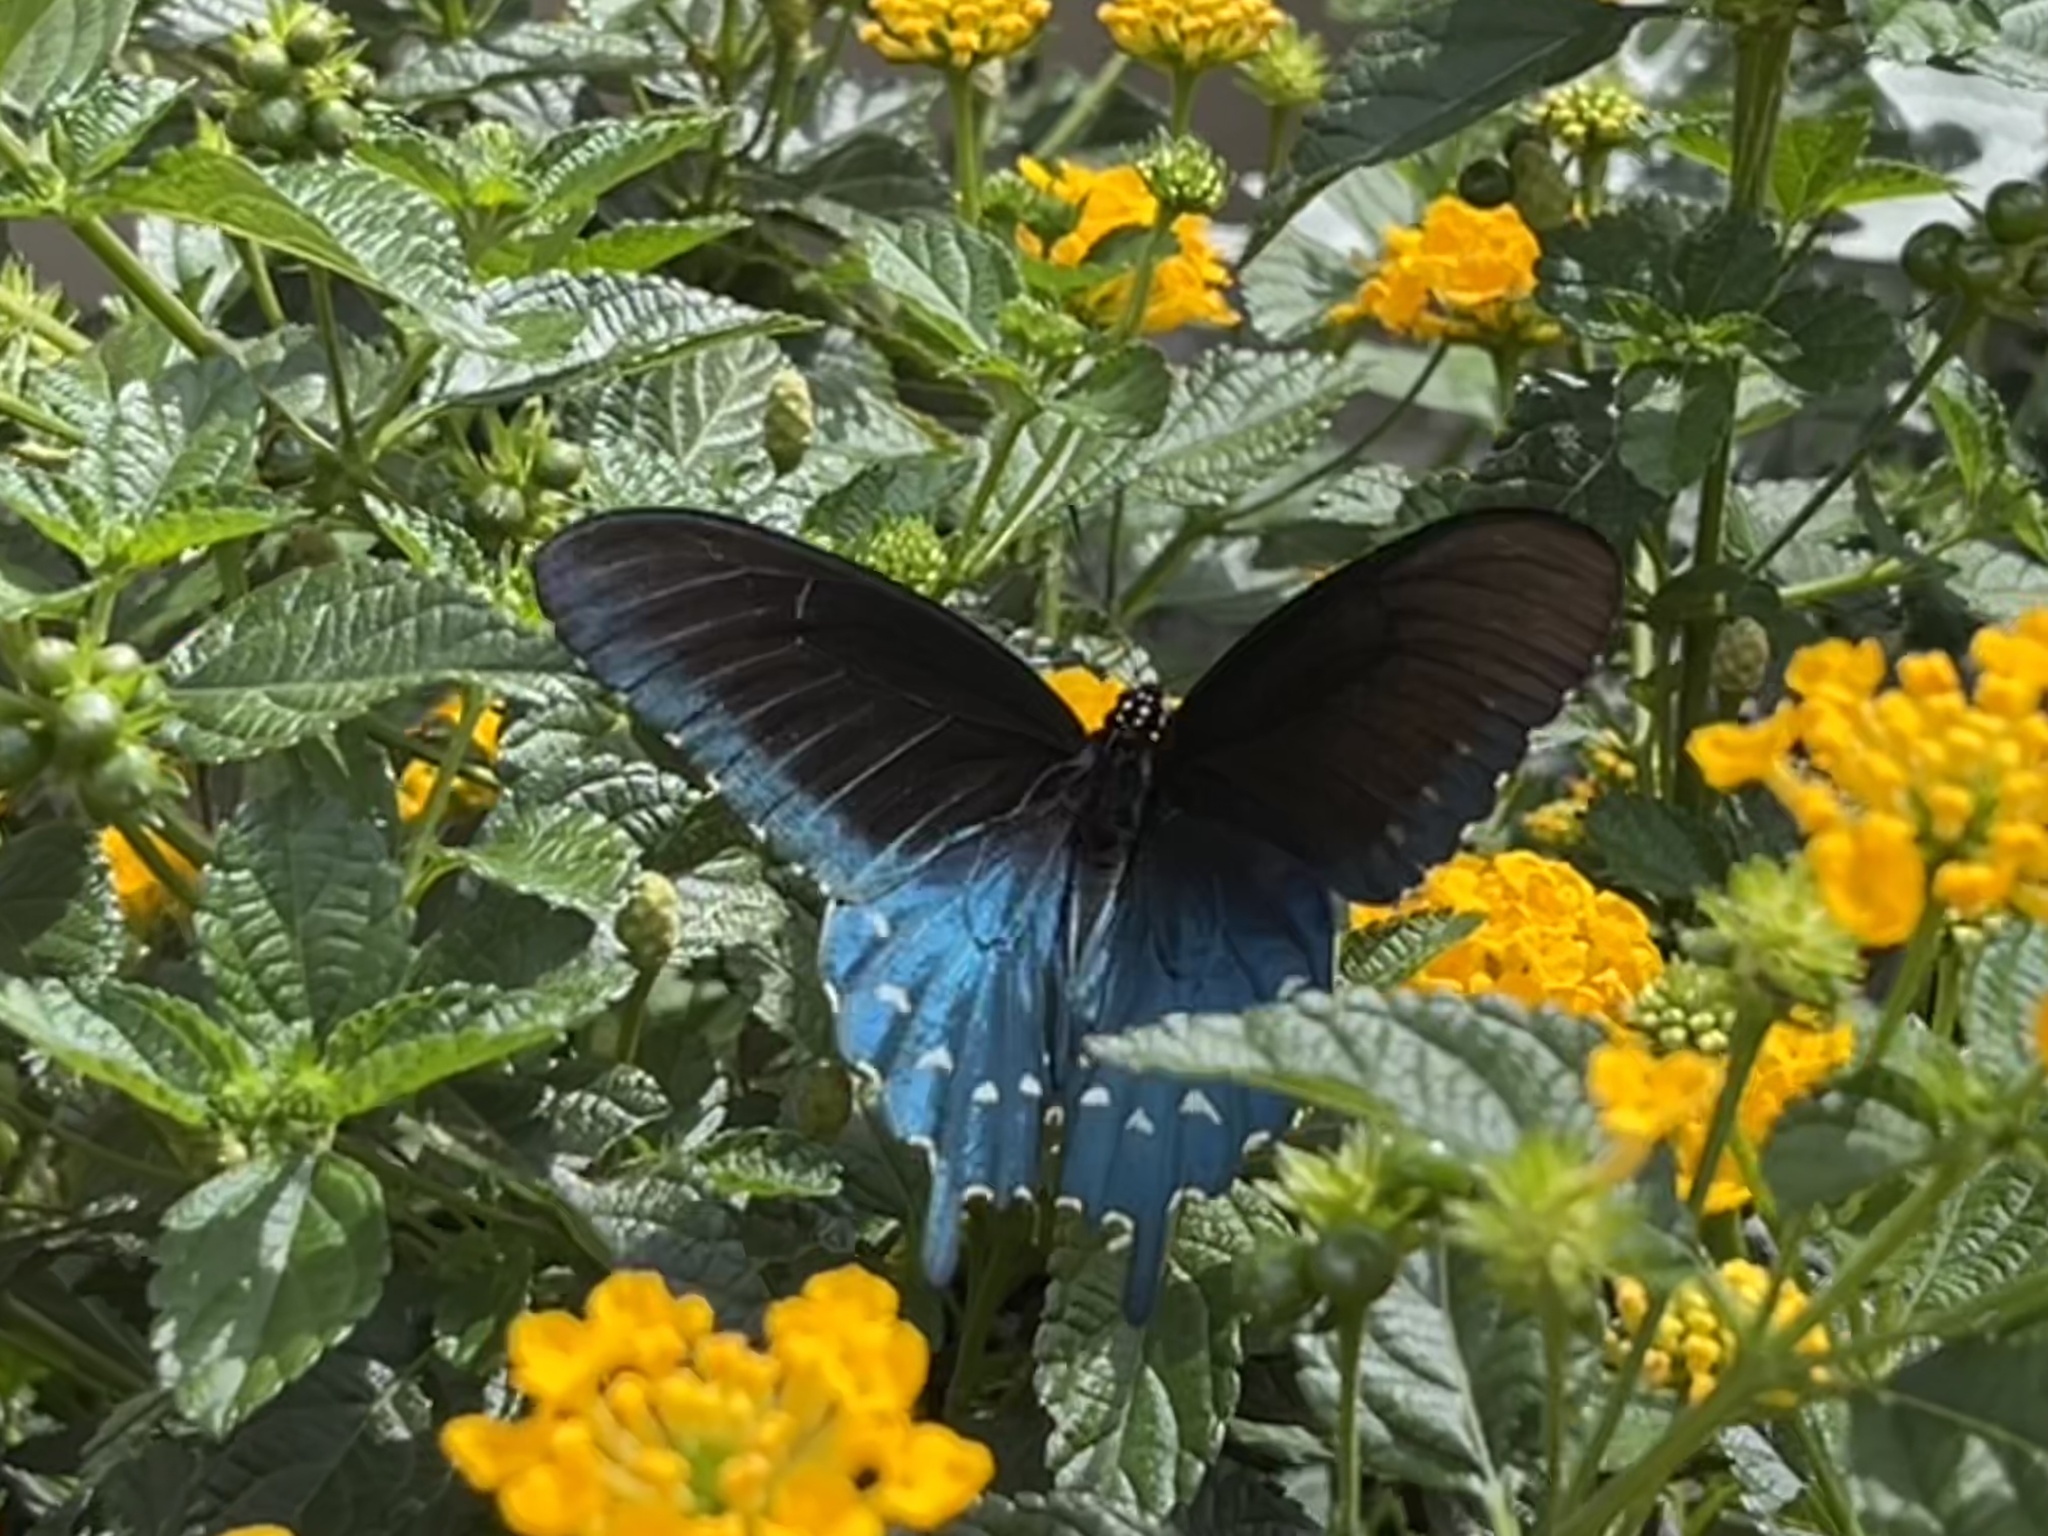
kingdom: Animalia
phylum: Arthropoda
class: Insecta
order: Lepidoptera
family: Papilionidae
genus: Battus
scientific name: Battus philenor
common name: Pipevine swallowtail
